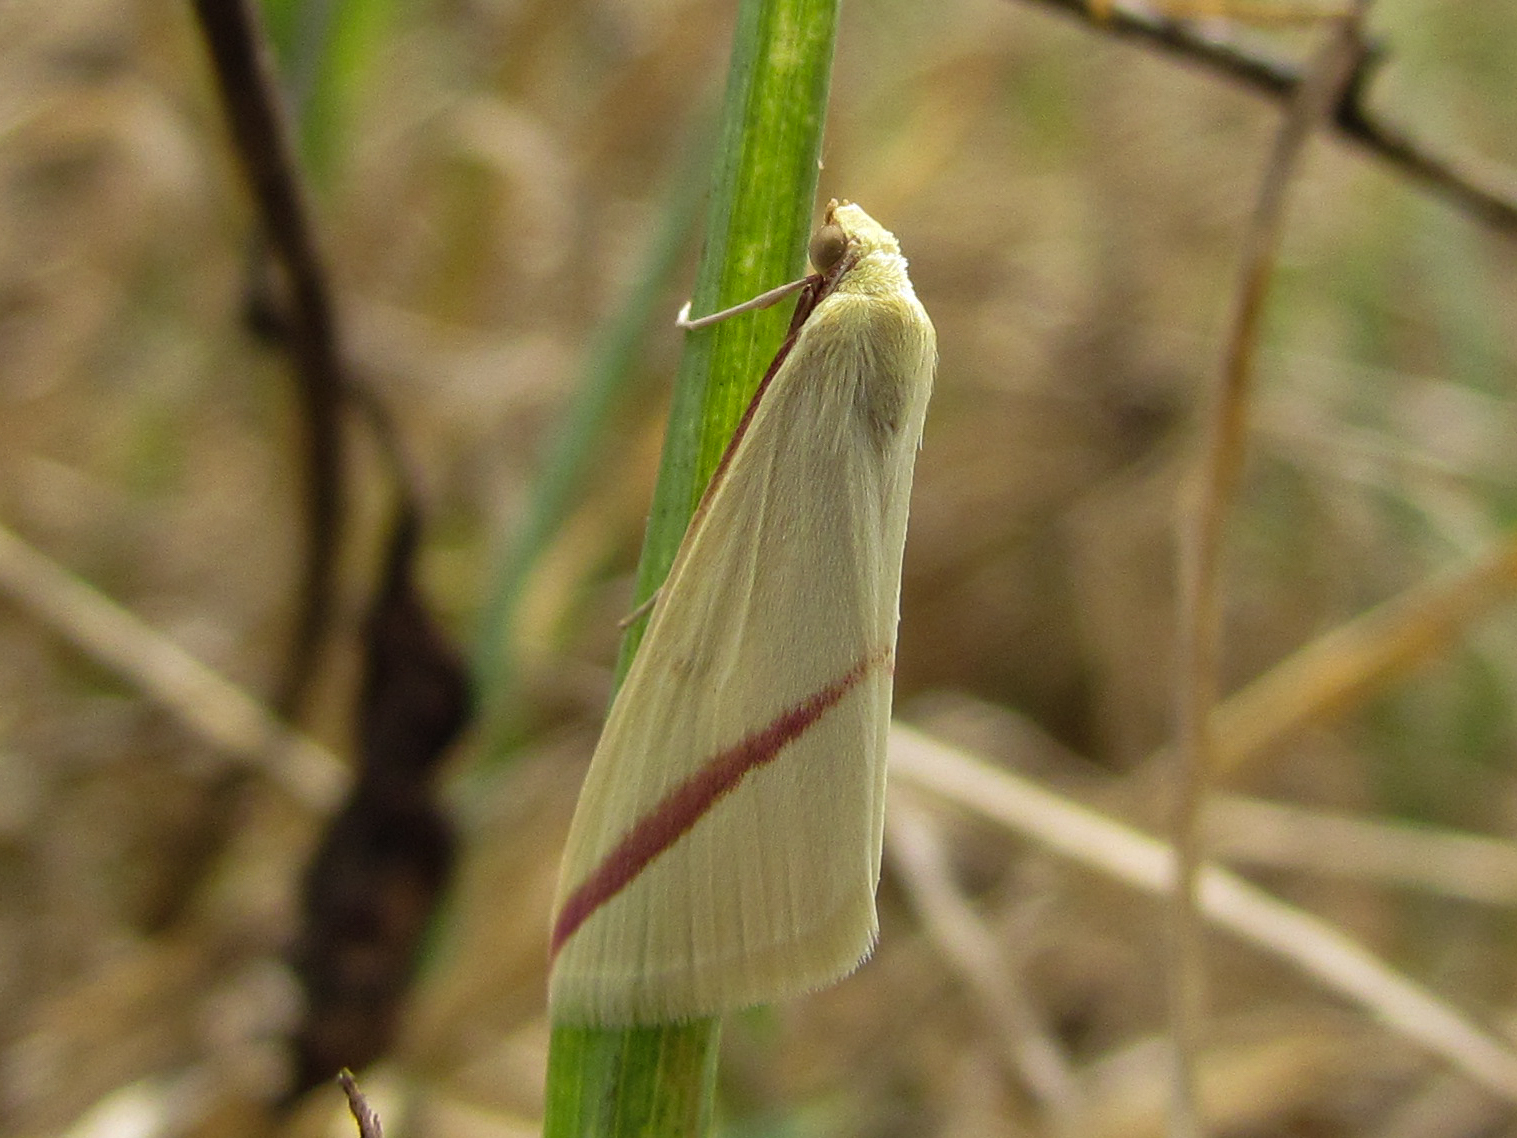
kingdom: Animalia
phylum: Arthropoda
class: Insecta
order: Lepidoptera
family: Geometridae
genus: Rhodometra
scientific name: Rhodometra sacraria
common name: Vestal
